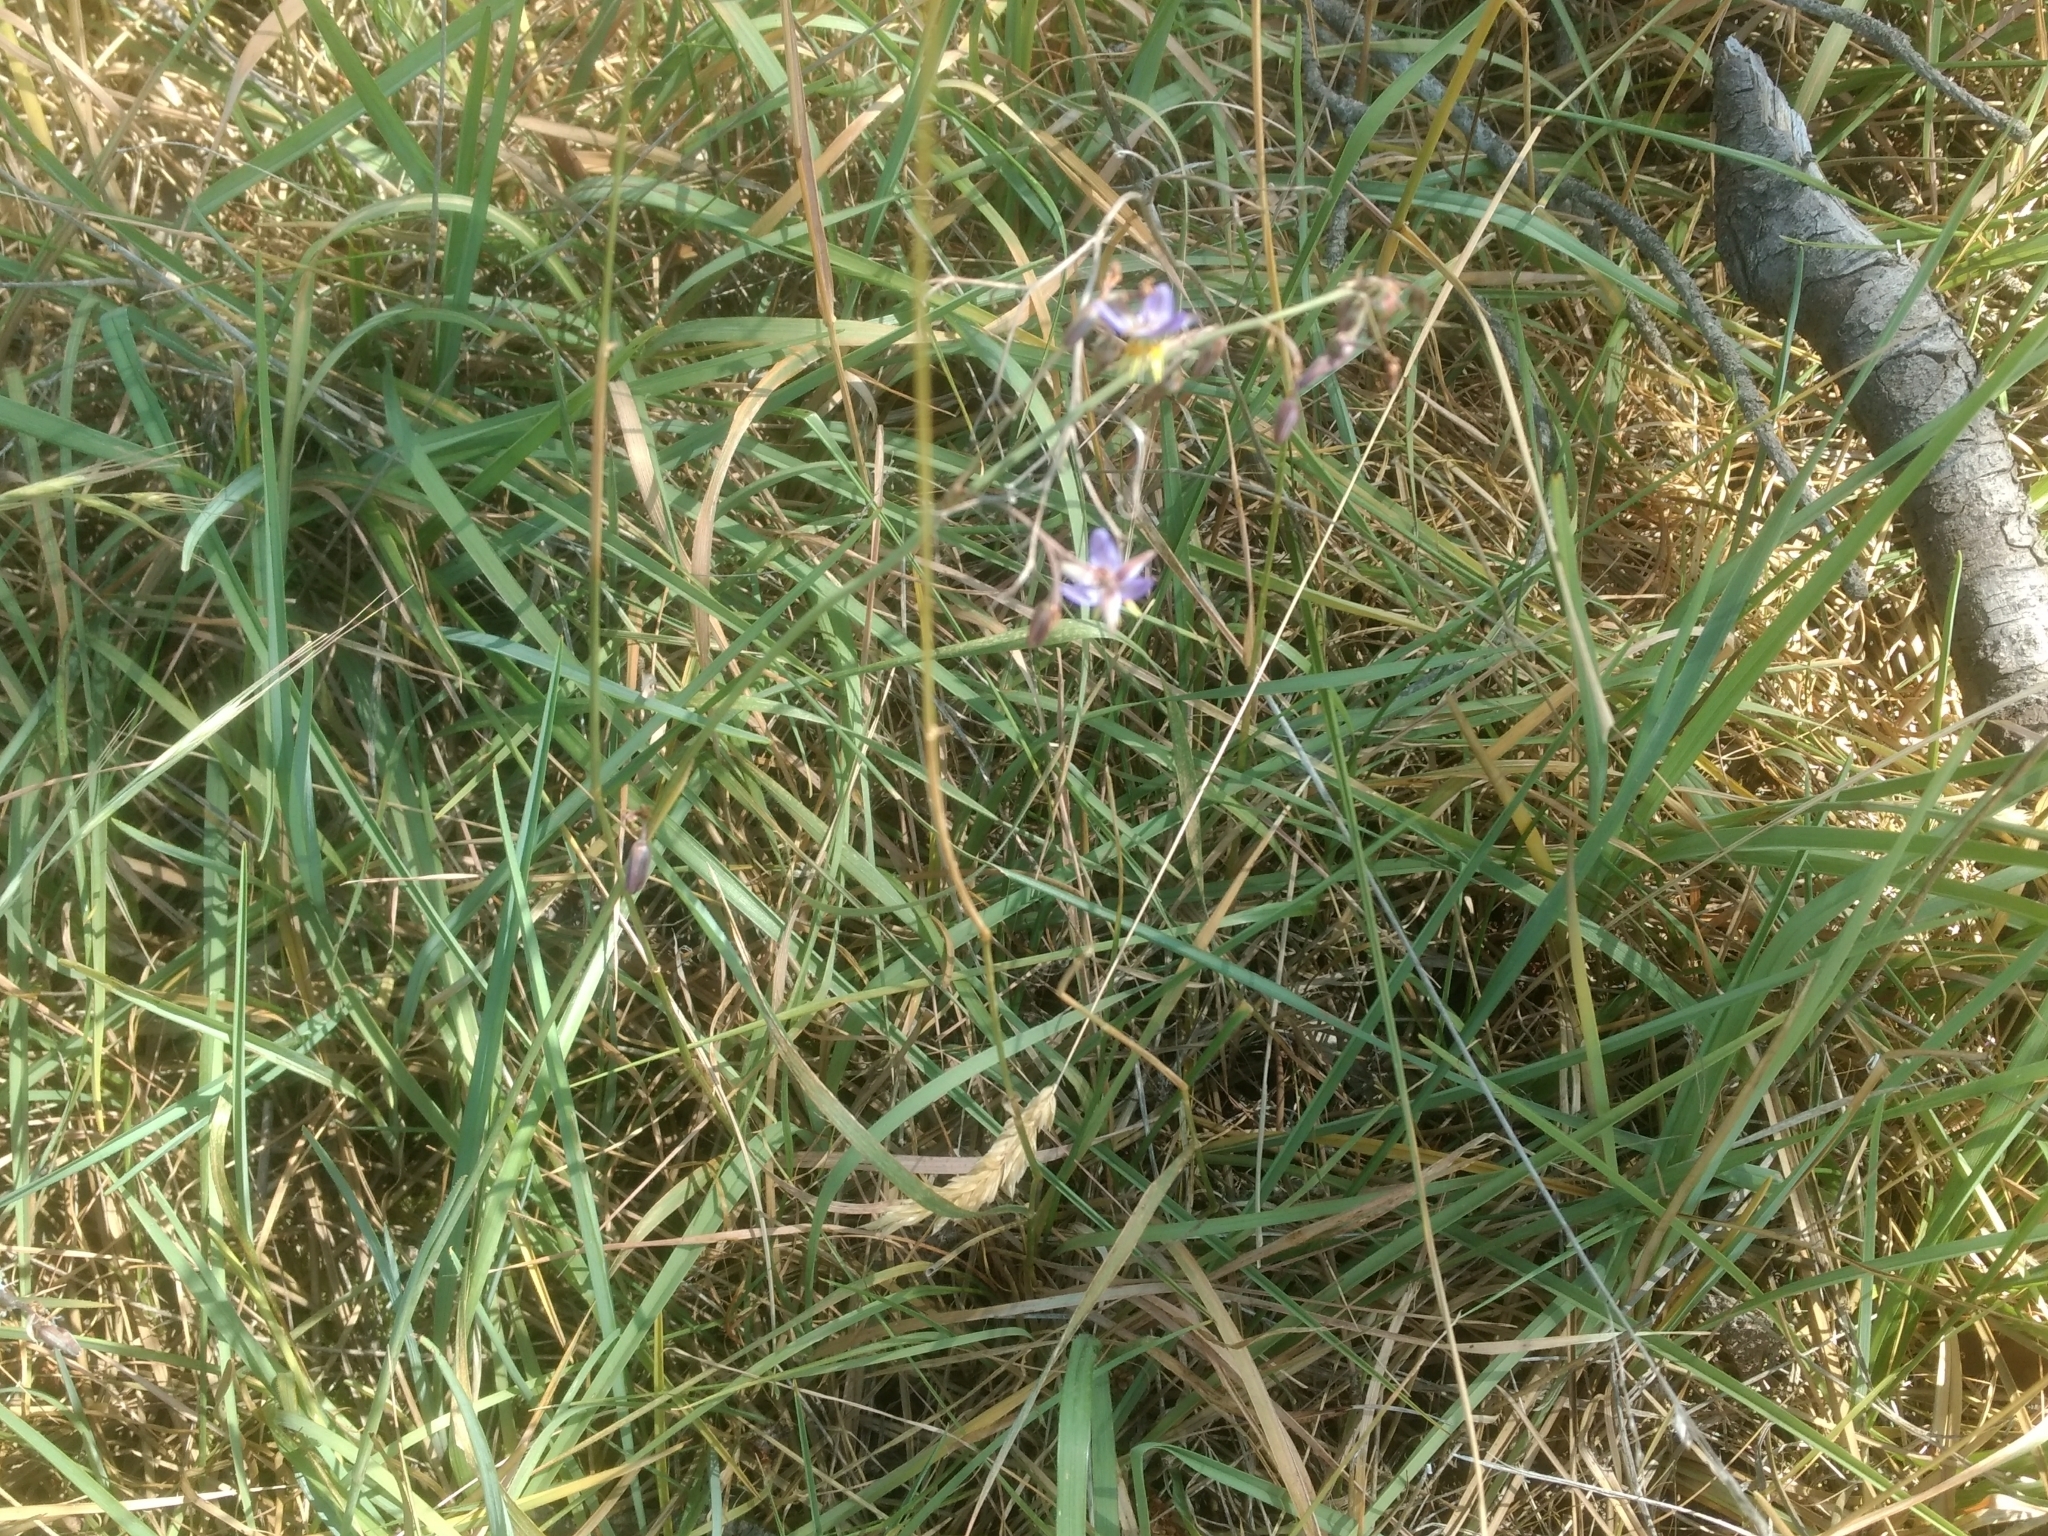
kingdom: Plantae
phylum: Tracheophyta
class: Liliopsida
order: Asparagales
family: Asphodelaceae
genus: Dianella
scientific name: Dianella amoena
